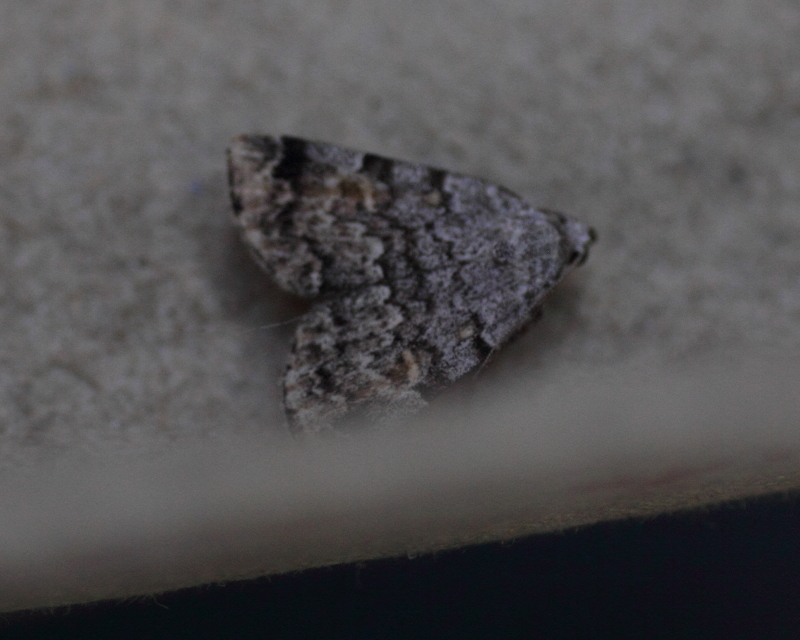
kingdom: Animalia
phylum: Arthropoda
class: Insecta
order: Lepidoptera
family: Erebidae
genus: Idia
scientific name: Idia americalis
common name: American idia moth
